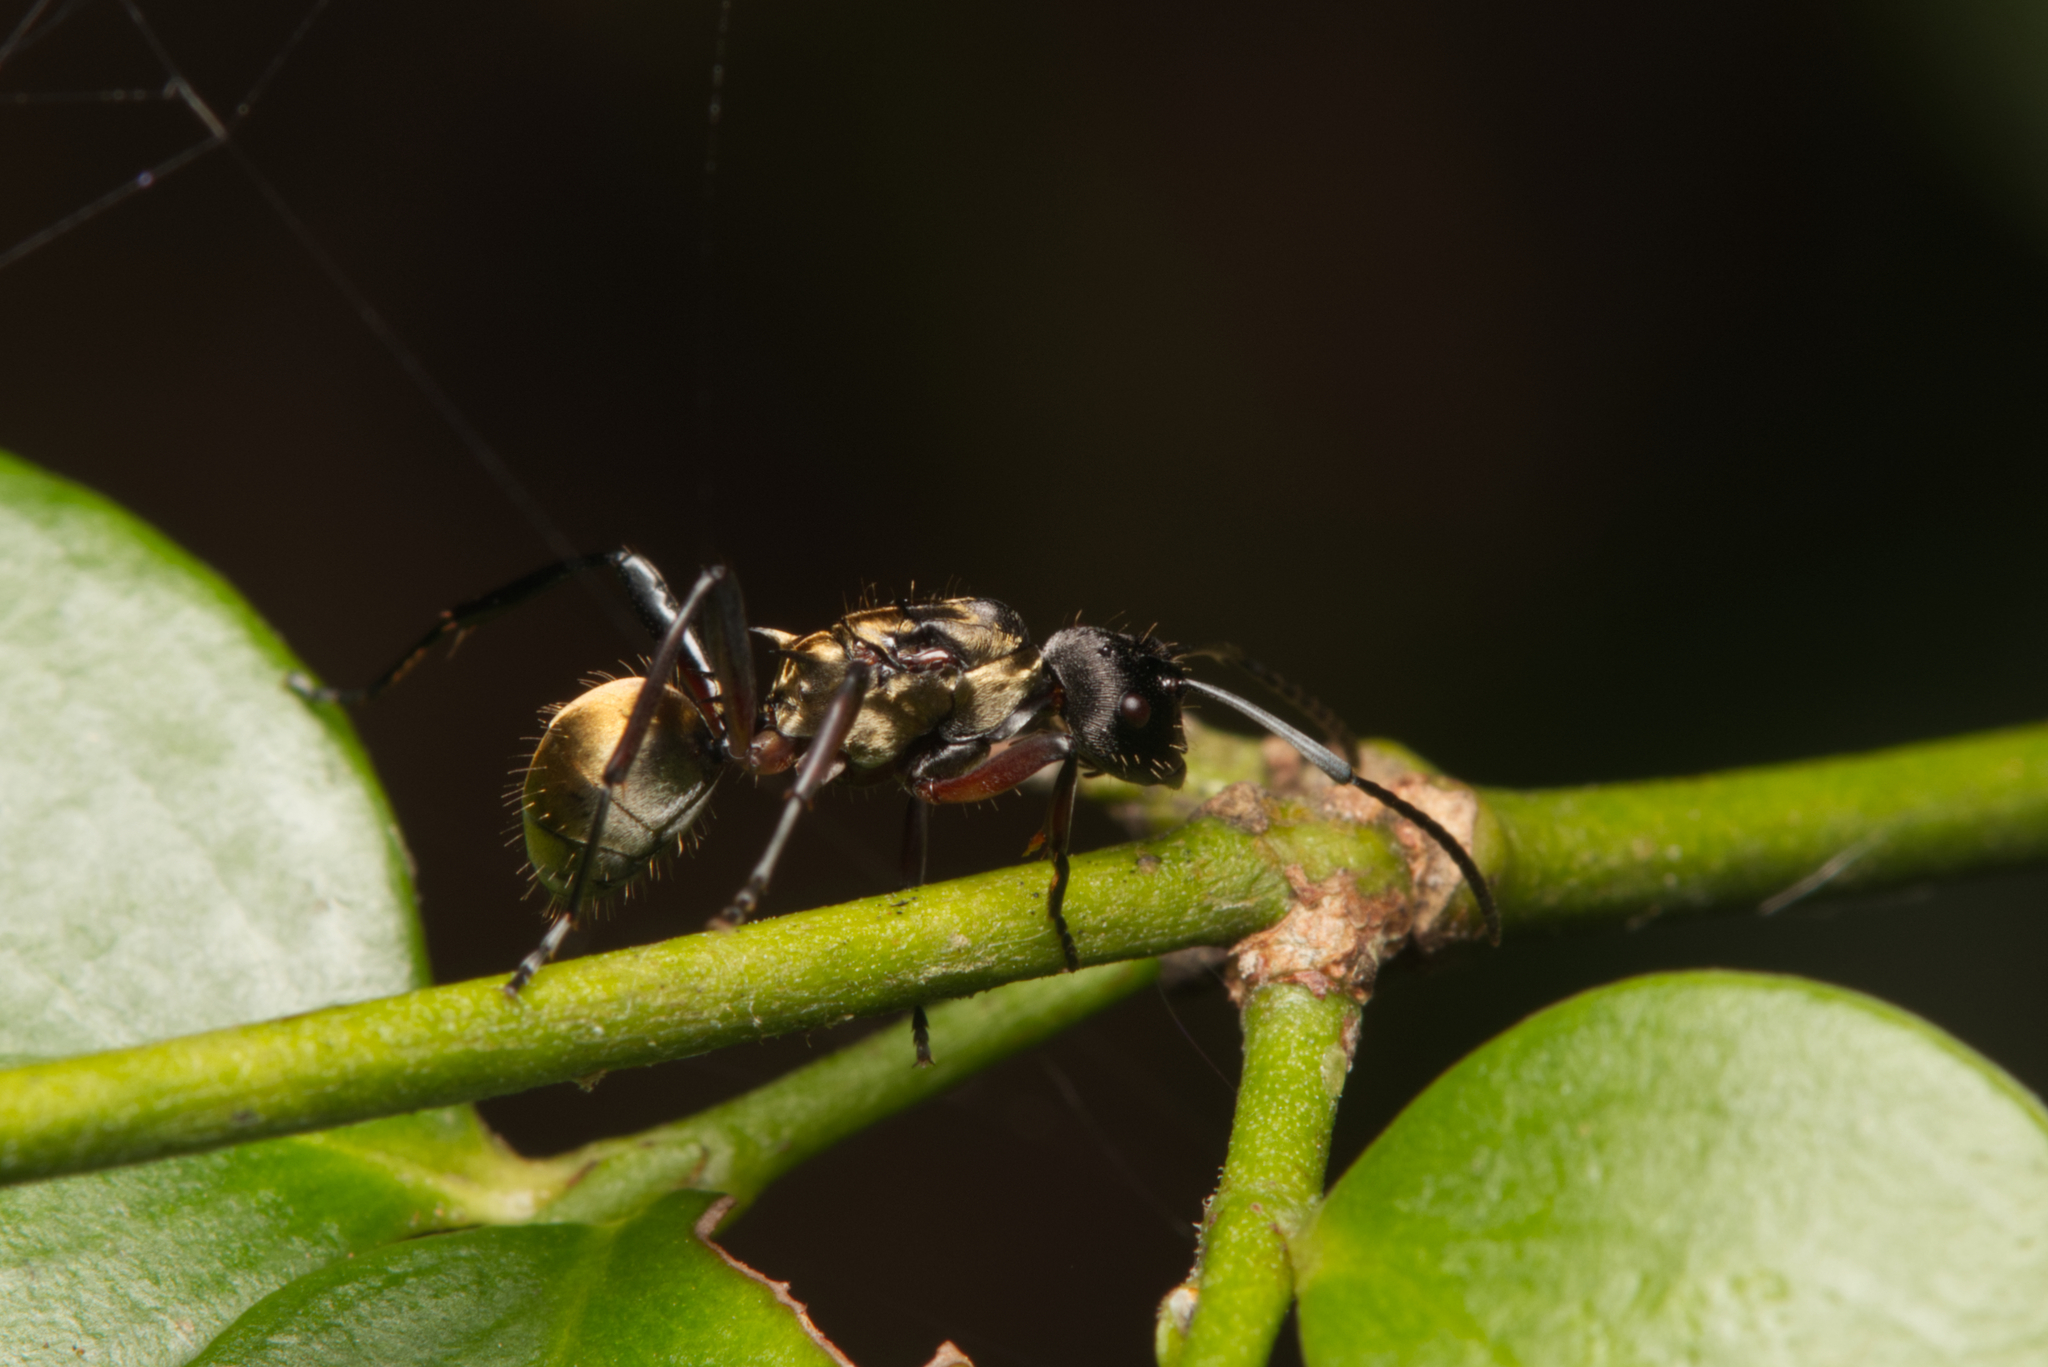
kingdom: Animalia
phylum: Arthropoda
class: Insecta
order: Hymenoptera
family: Formicidae
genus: Polyrhachis
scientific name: Polyrhachis rufifemur
